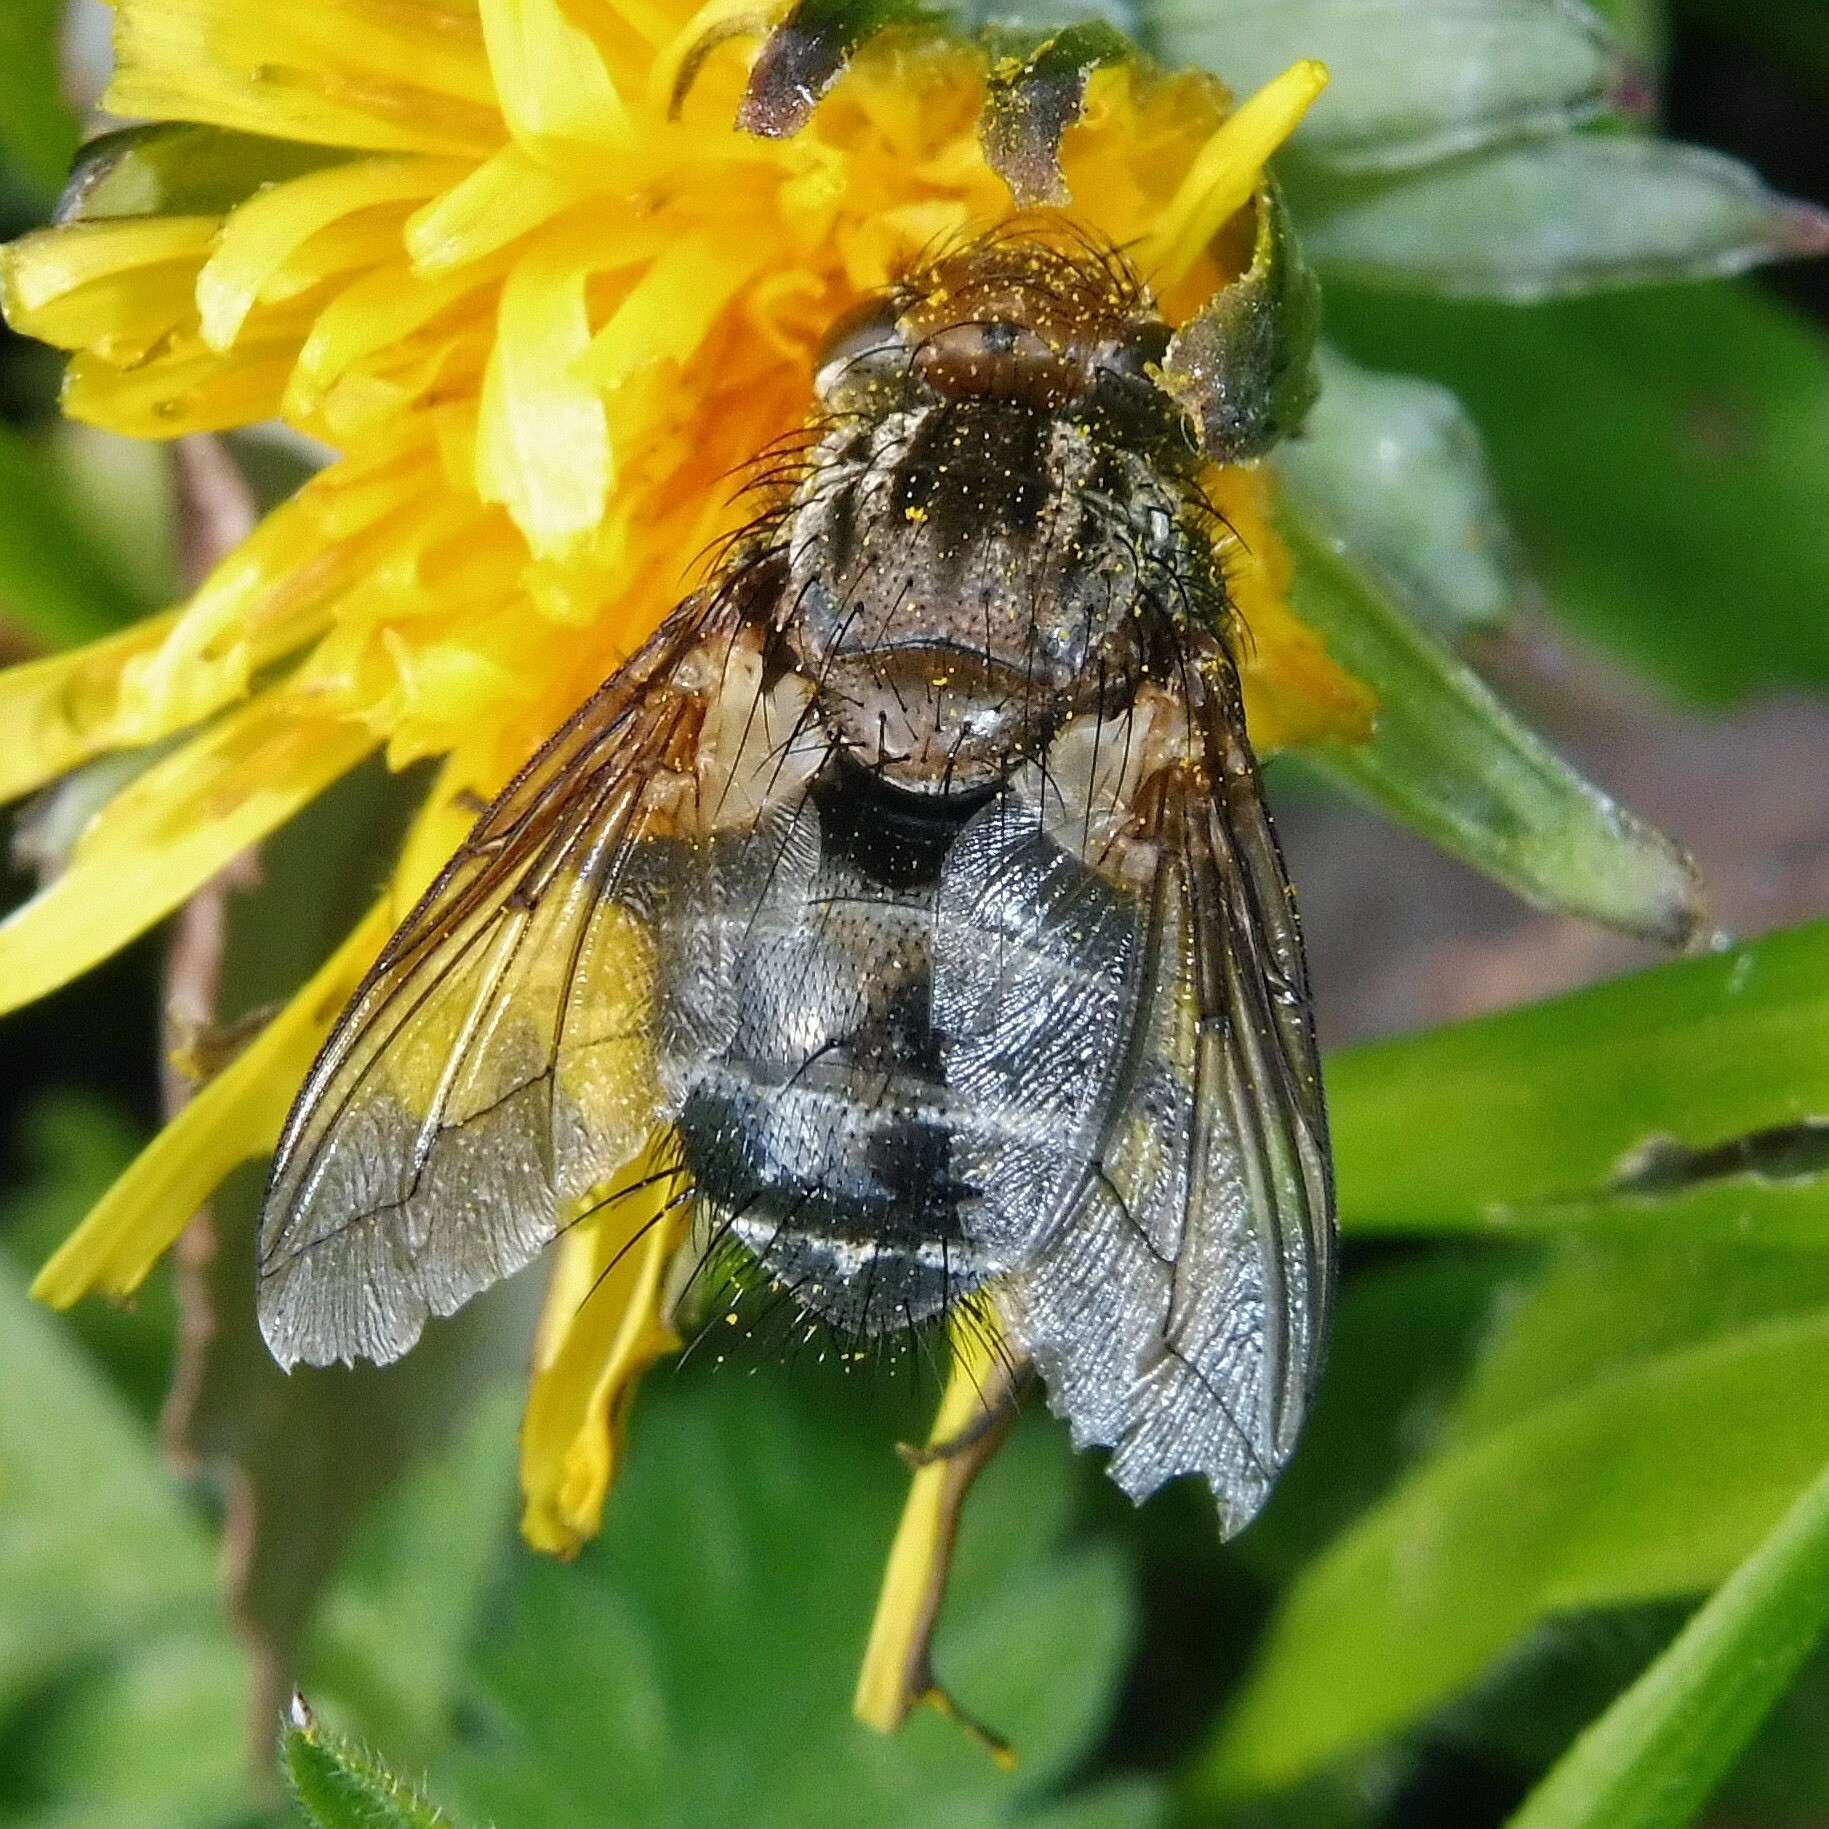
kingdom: Animalia
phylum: Arthropoda
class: Insecta
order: Diptera
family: Tachinidae
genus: Gonia
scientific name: Gonia picea
